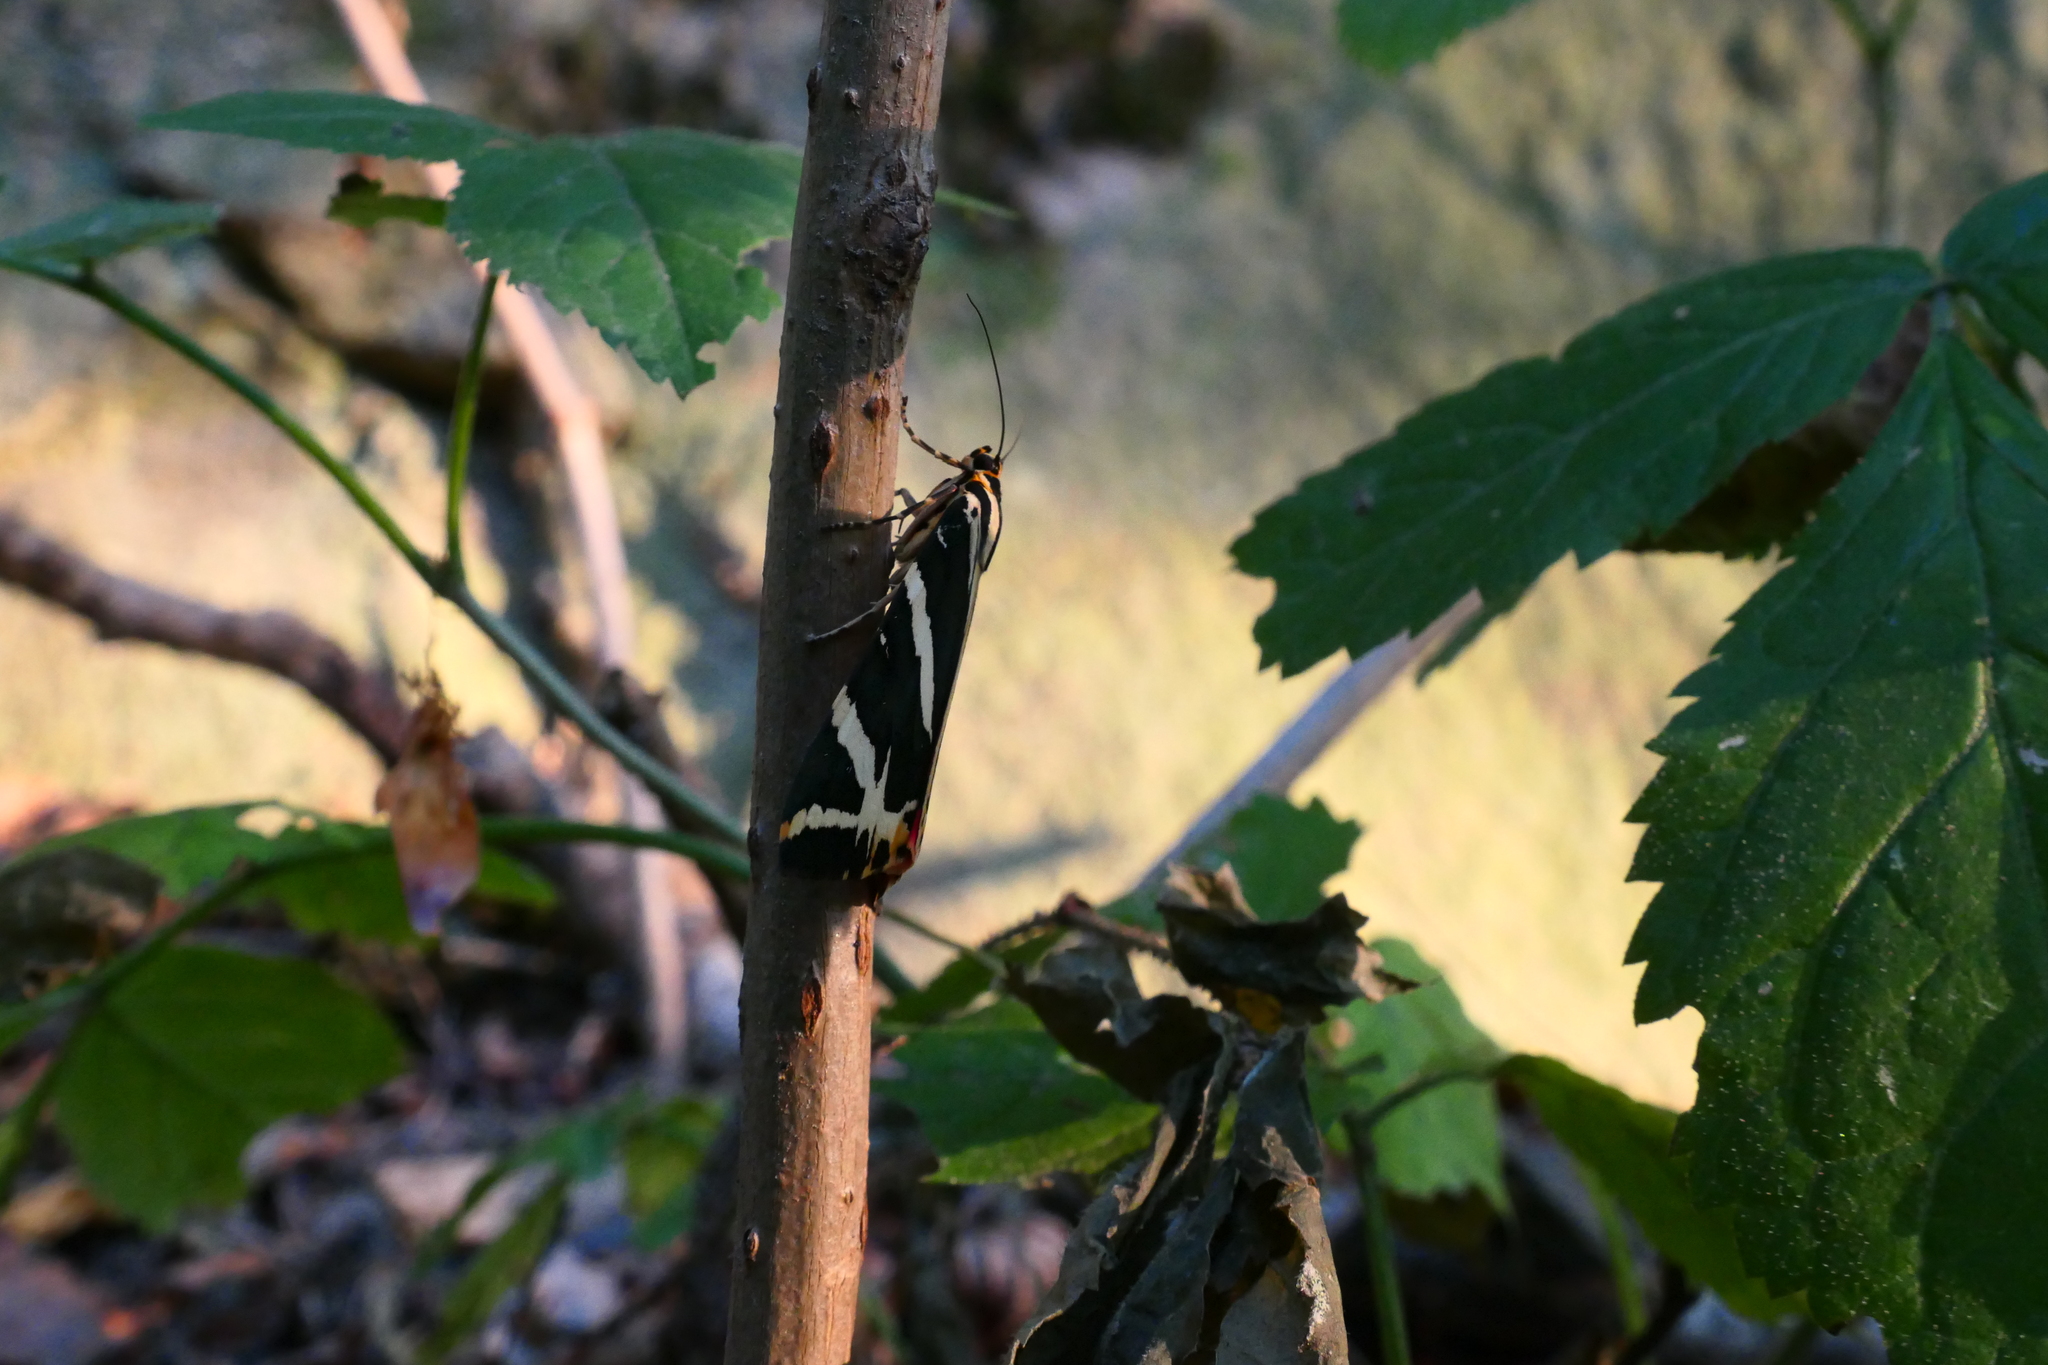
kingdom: Animalia
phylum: Arthropoda
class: Insecta
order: Lepidoptera
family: Erebidae
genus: Euplagia
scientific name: Euplagia quadripunctaria
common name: Jersey tiger
